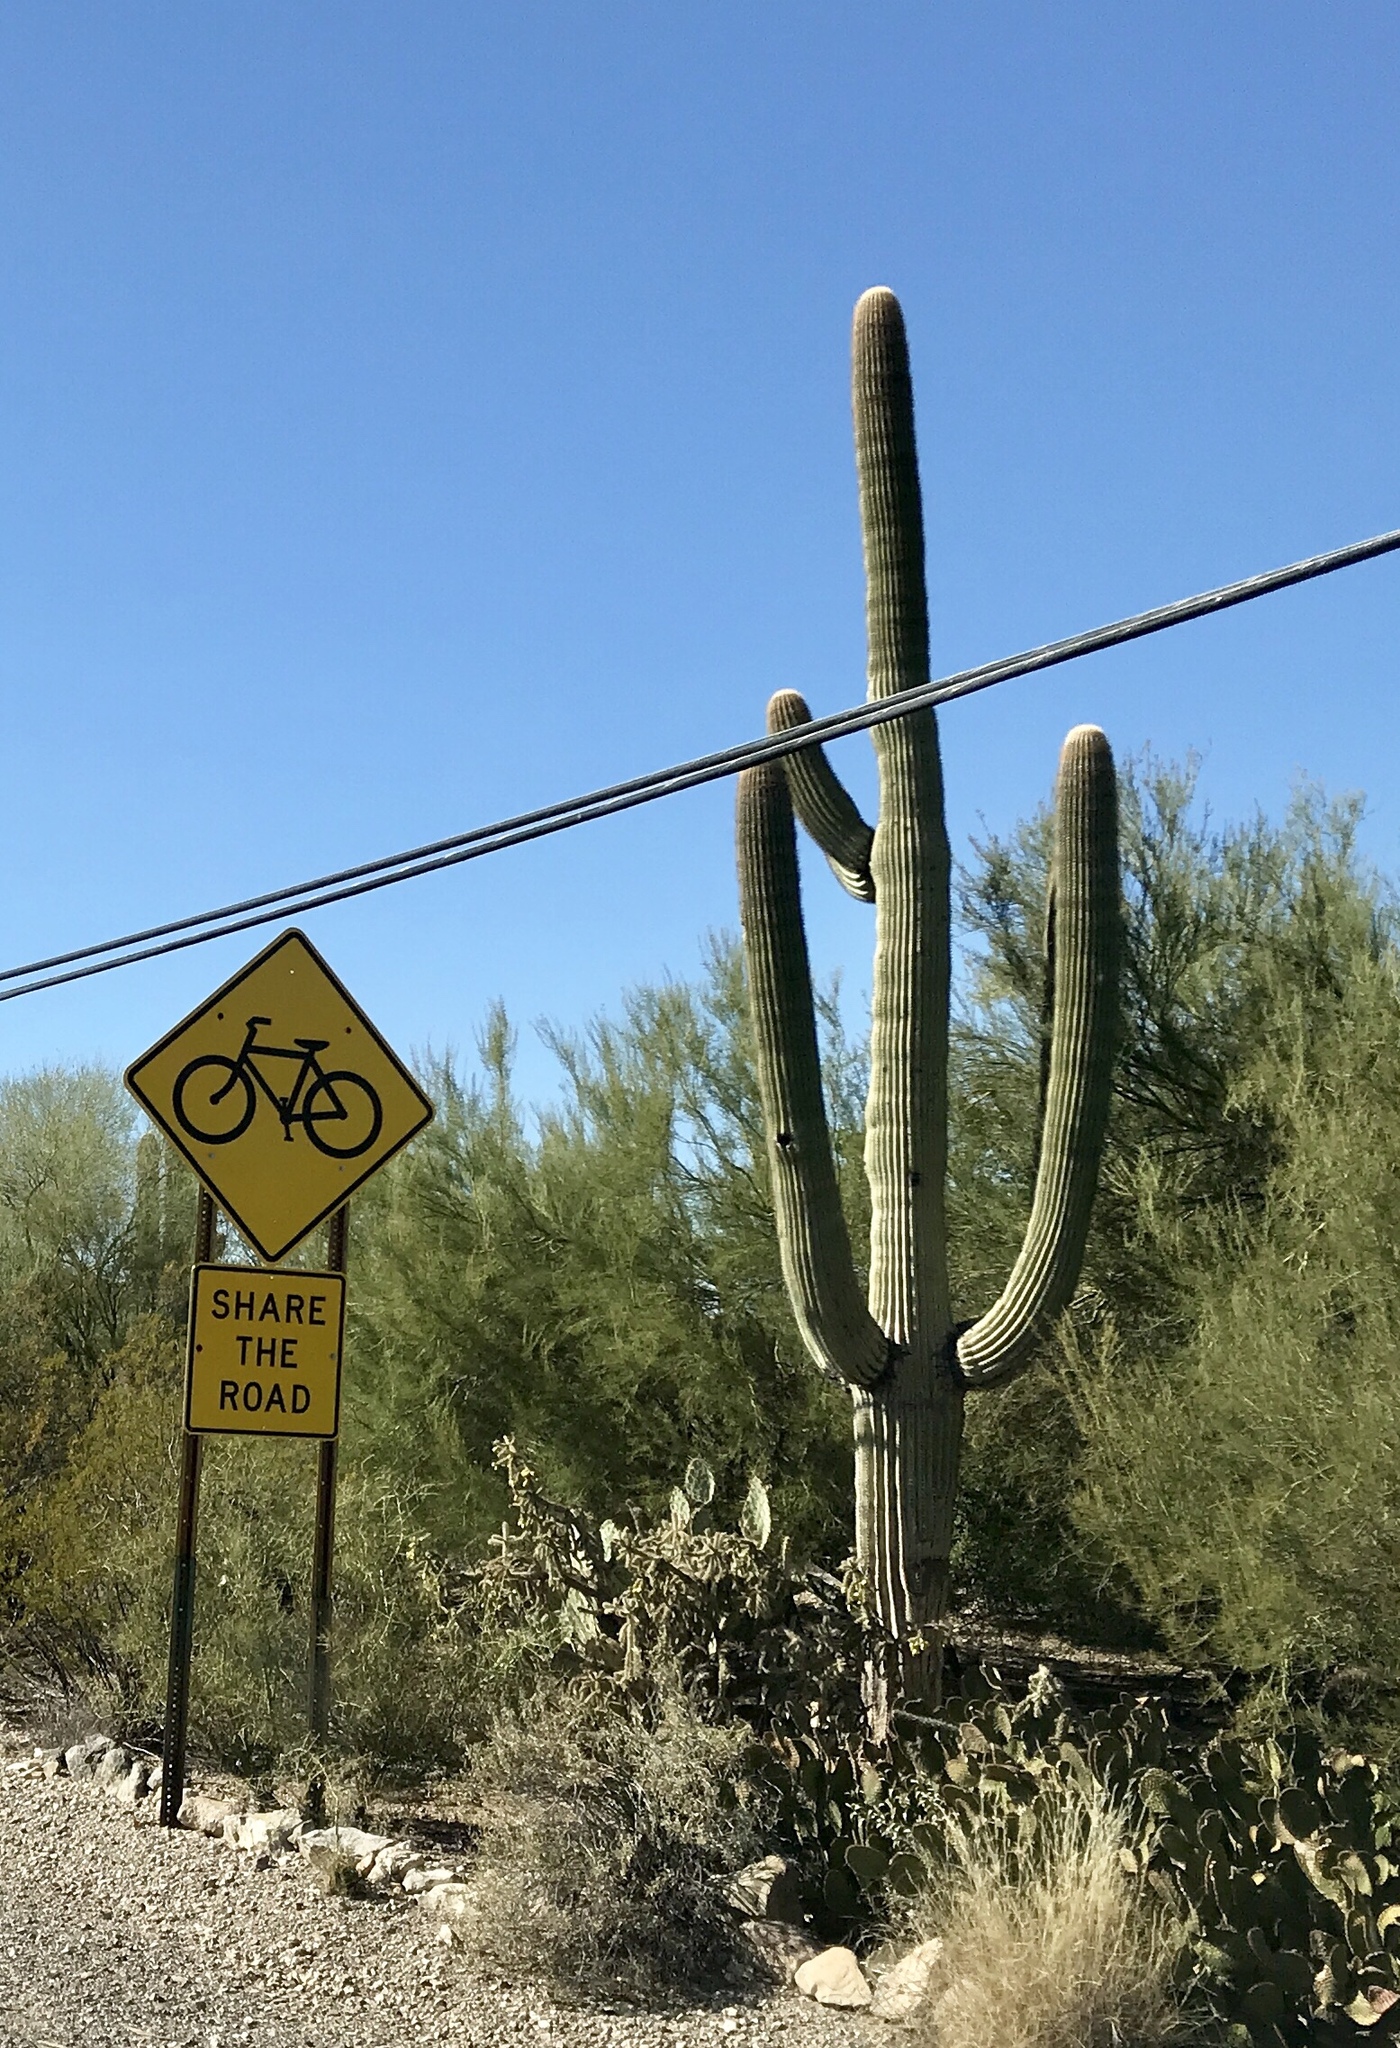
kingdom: Plantae
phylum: Tracheophyta
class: Magnoliopsida
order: Caryophyllales
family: Cactaceae
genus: Carnegiea
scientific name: Carnegiea gigantea
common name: Saguaro
